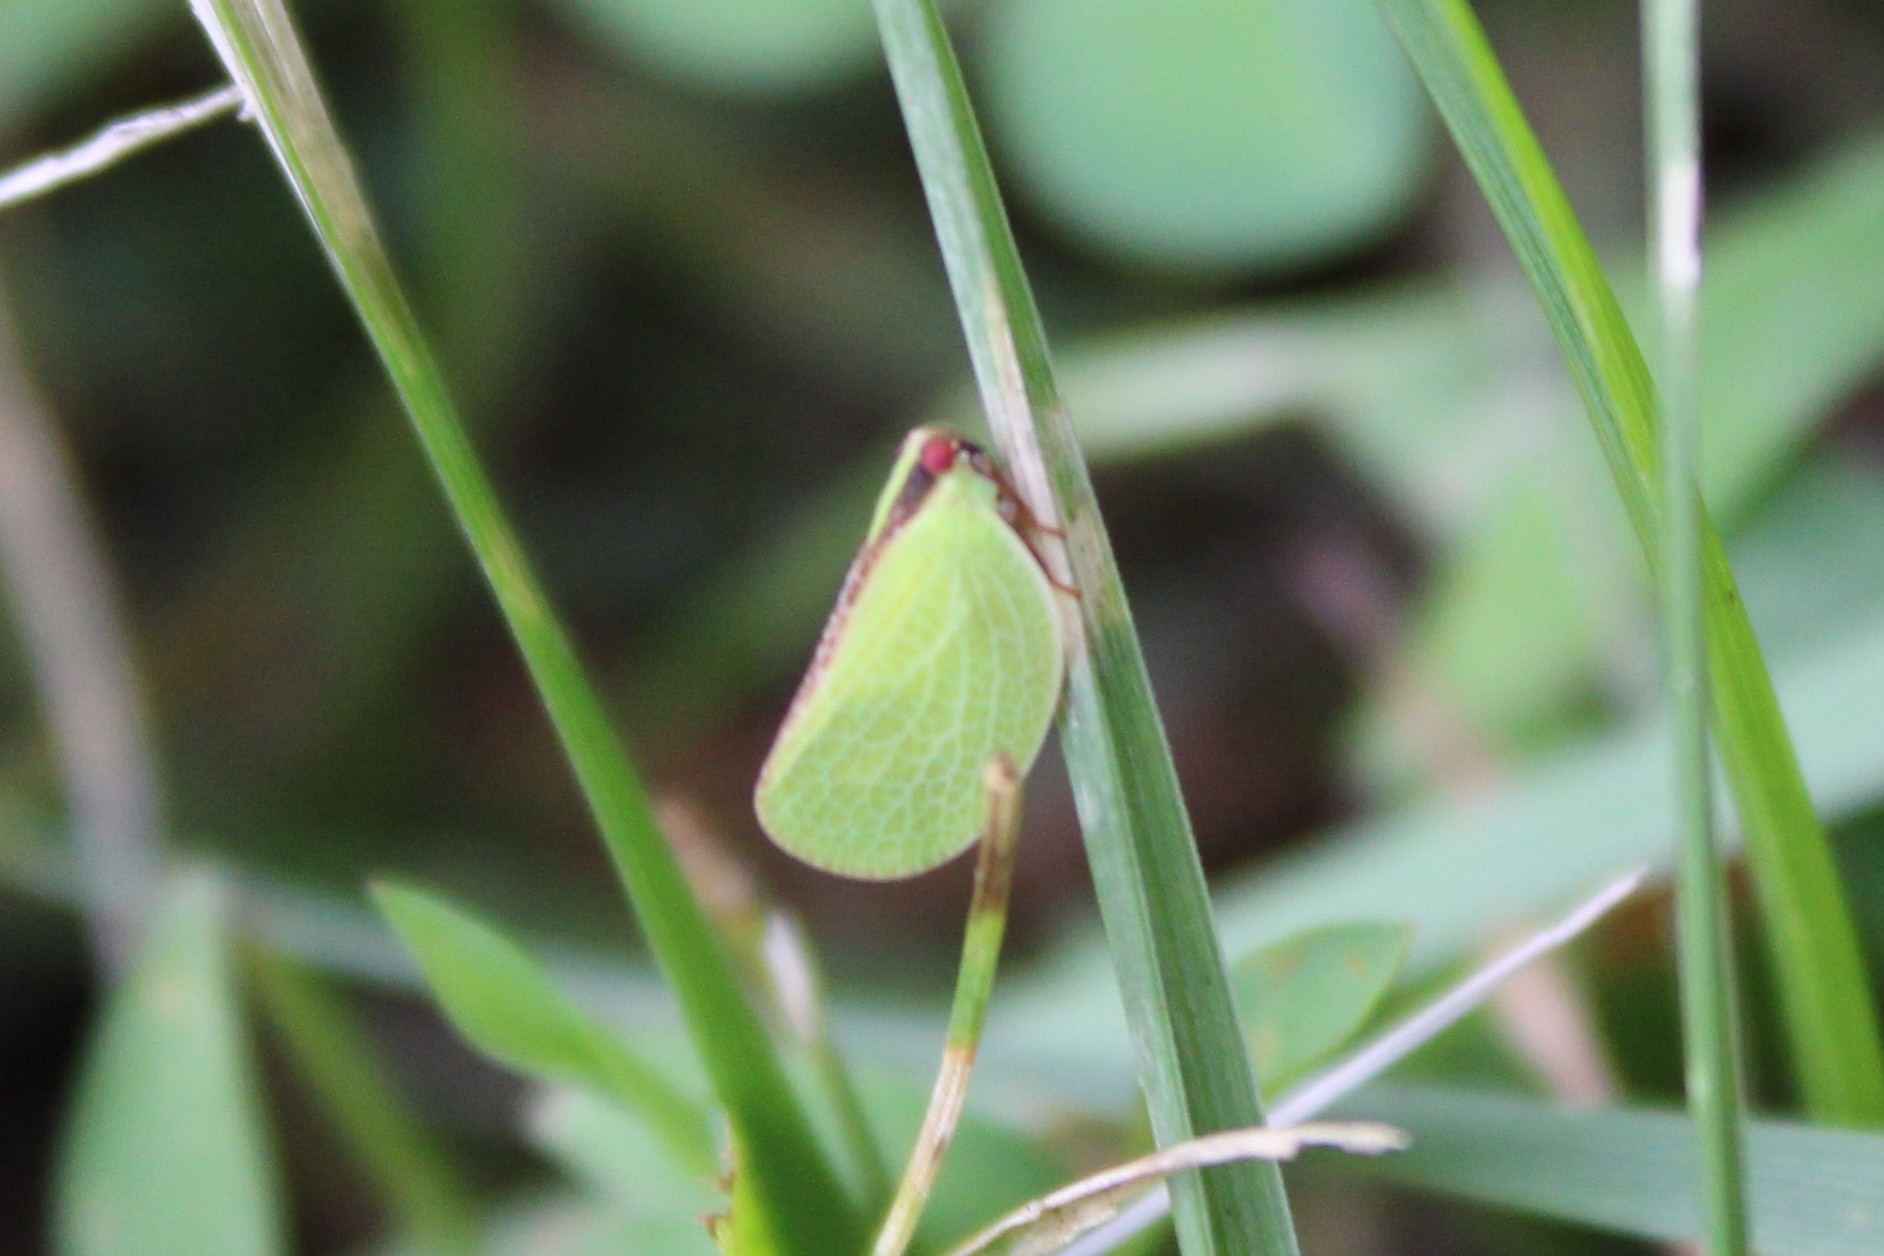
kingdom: Animalia
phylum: Arthropoda
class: Insecta
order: Hemiptera
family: Acanaloniidae
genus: Acanalonia
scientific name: Acanalonia bivittata
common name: Two-striped planthopper
